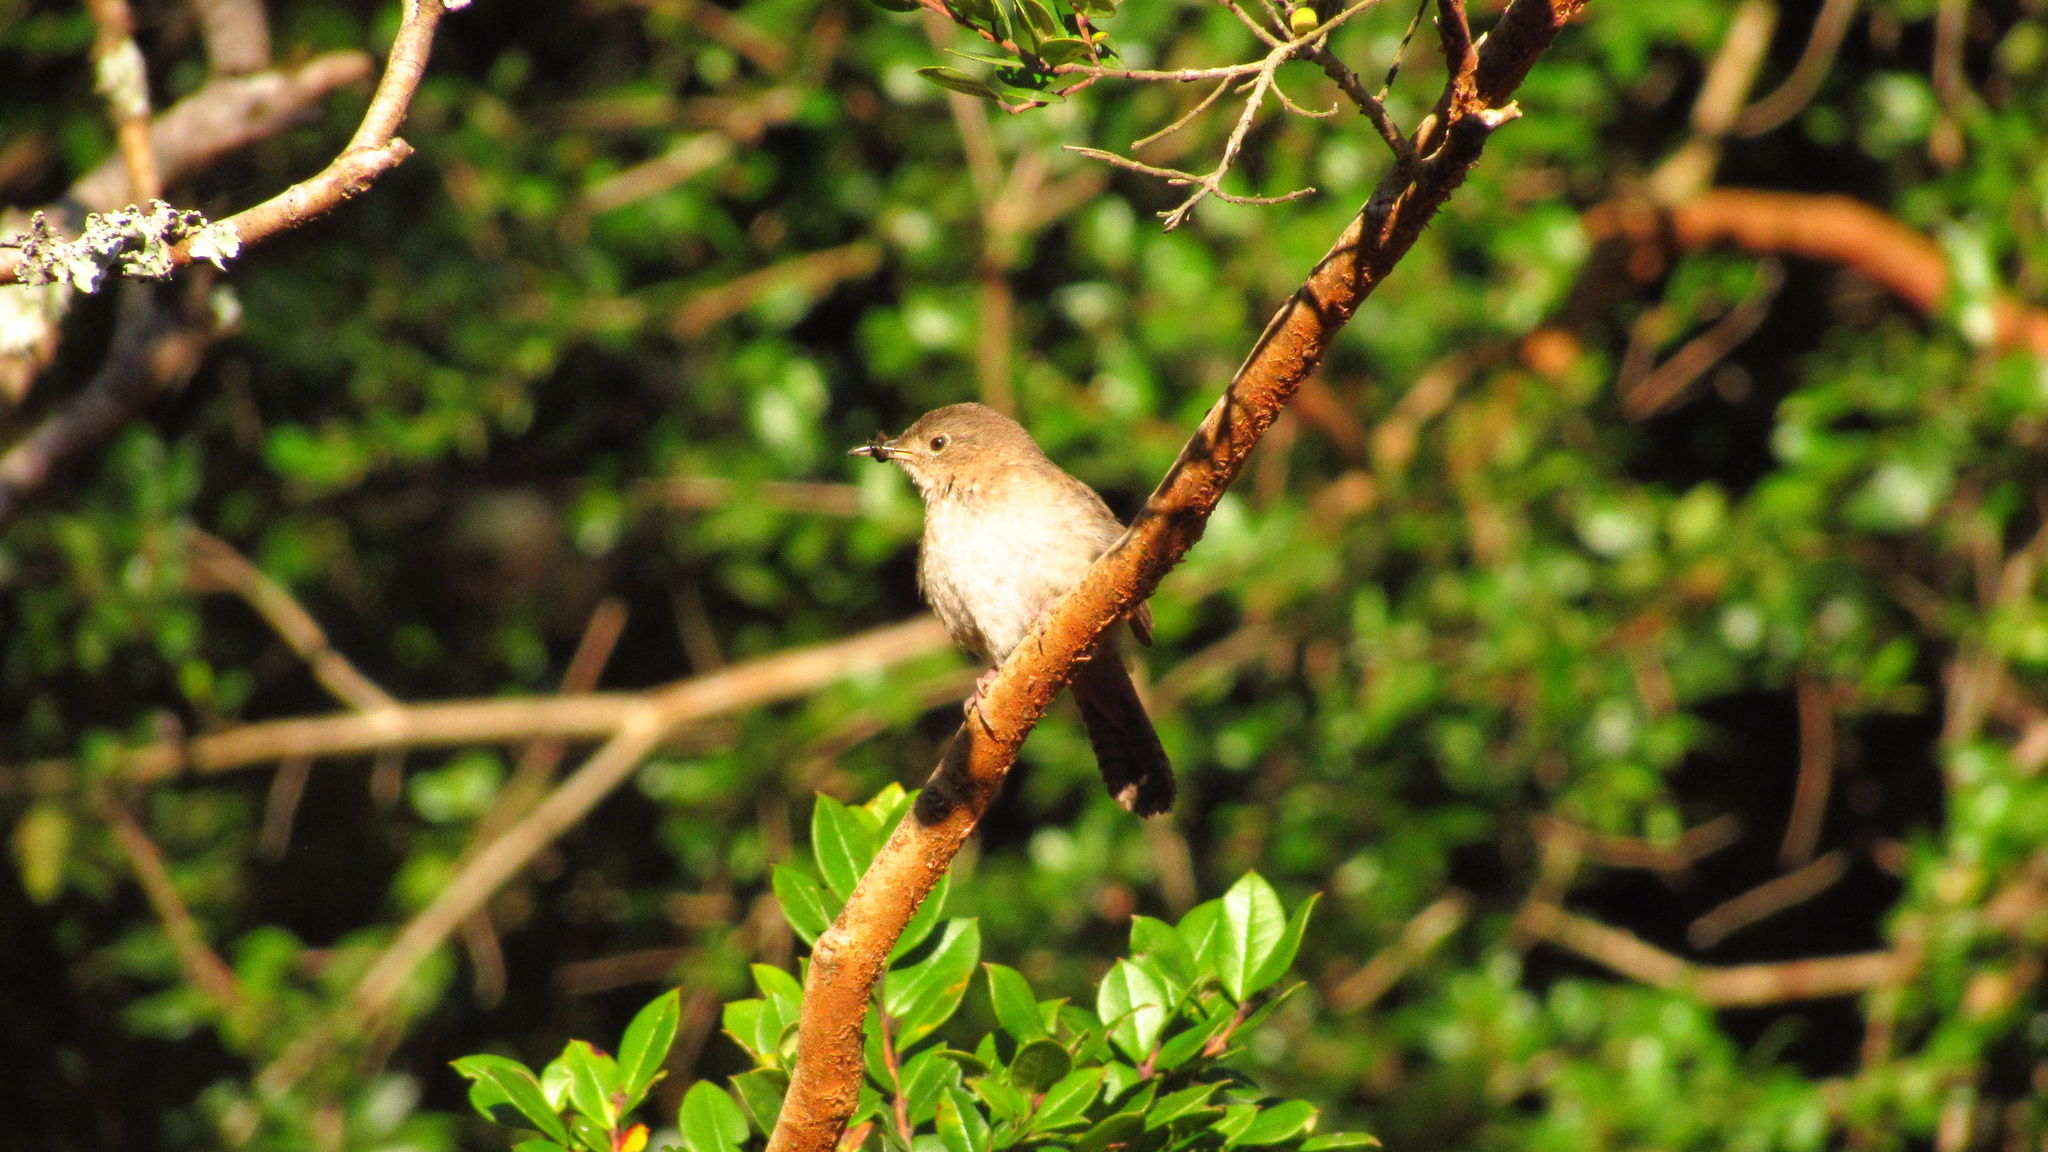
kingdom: Animalia
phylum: Chordata
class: Aves
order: Passeriformes
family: Troglodytidae
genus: Troglodytes
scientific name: Troglodytes aedon
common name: House wren
